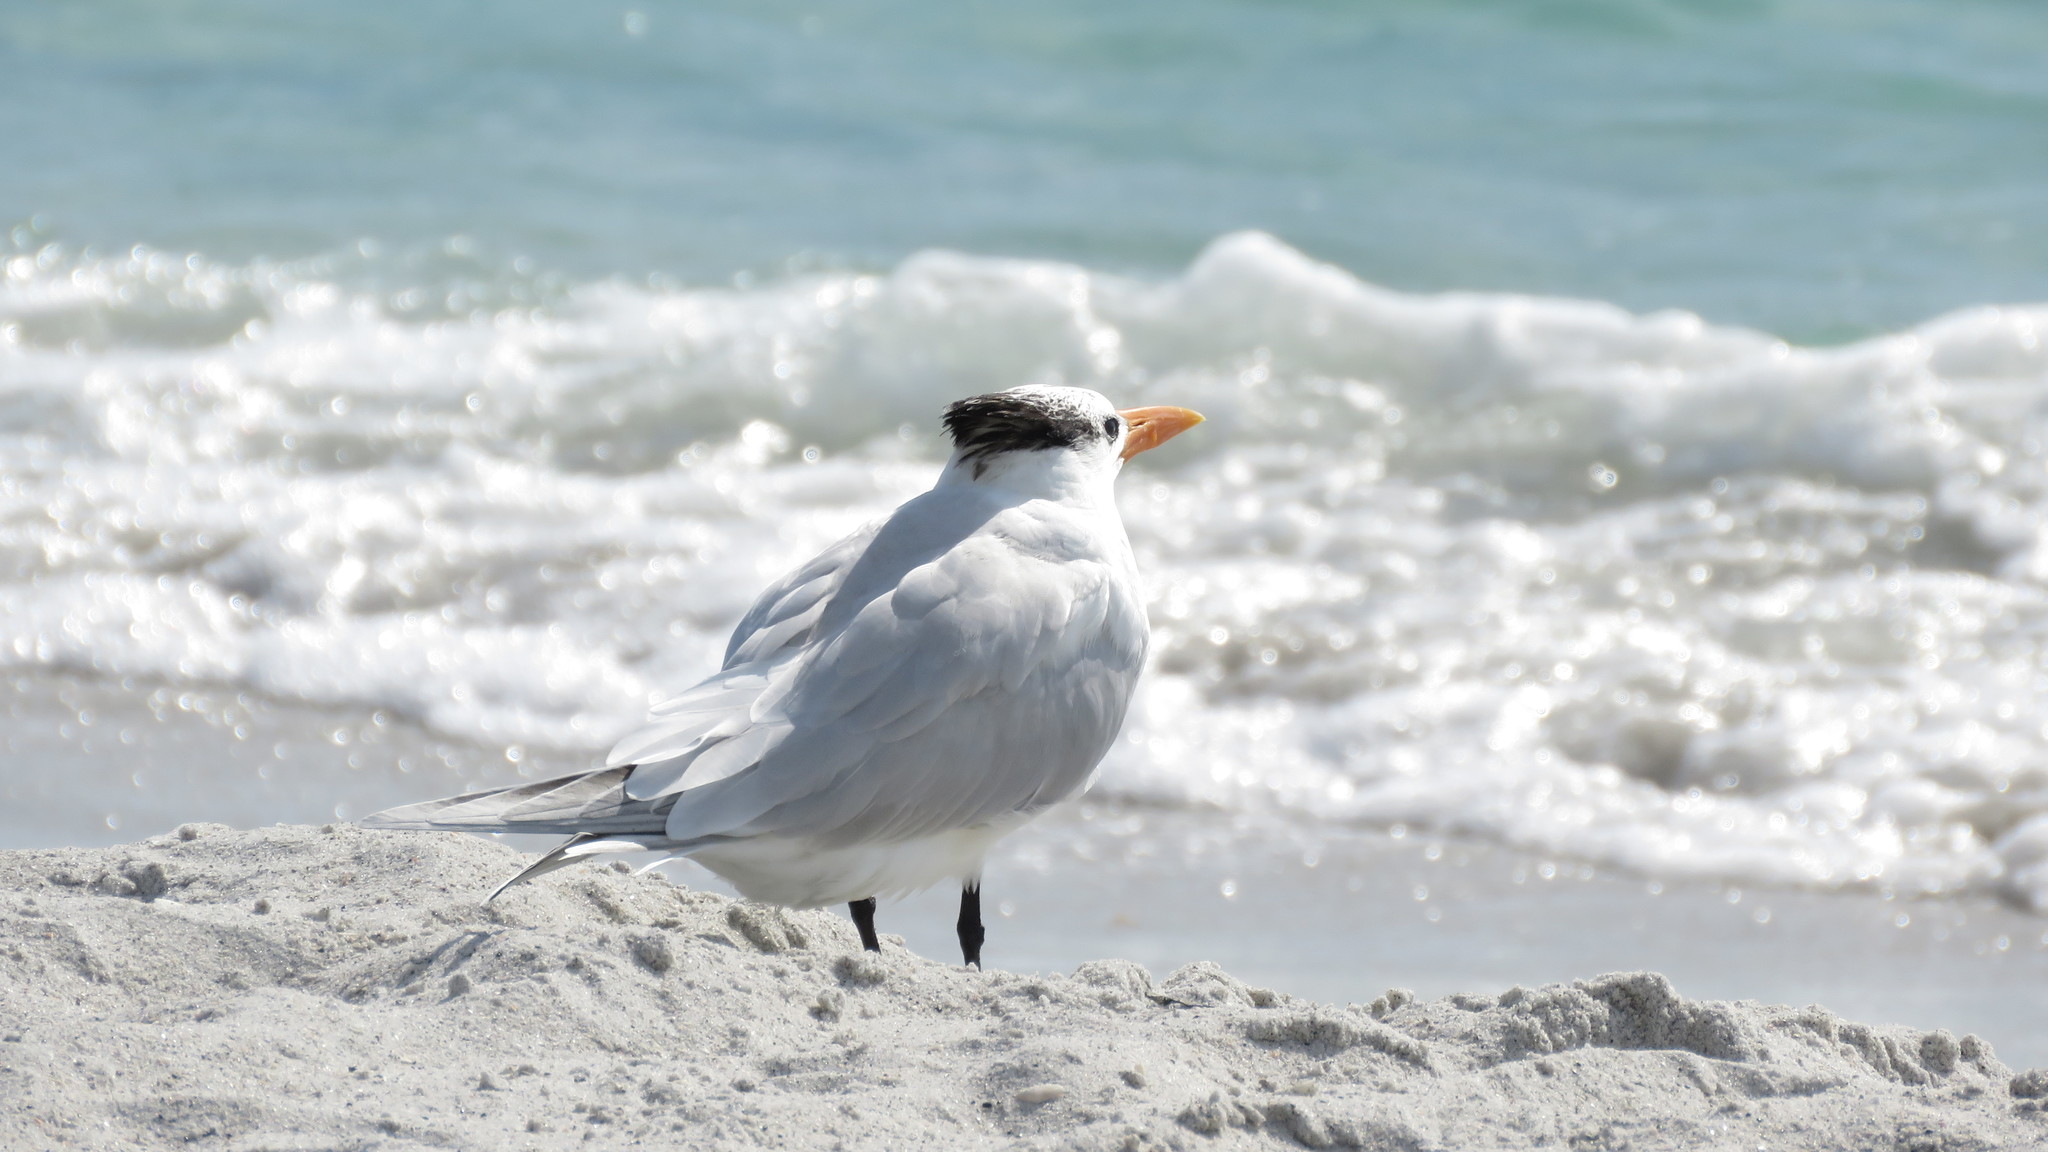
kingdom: Animalia
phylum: Chordata
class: Aves
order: Charadriiformes
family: Laridae
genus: Thalasseus
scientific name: Thalasseus maximus
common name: Royal tern
